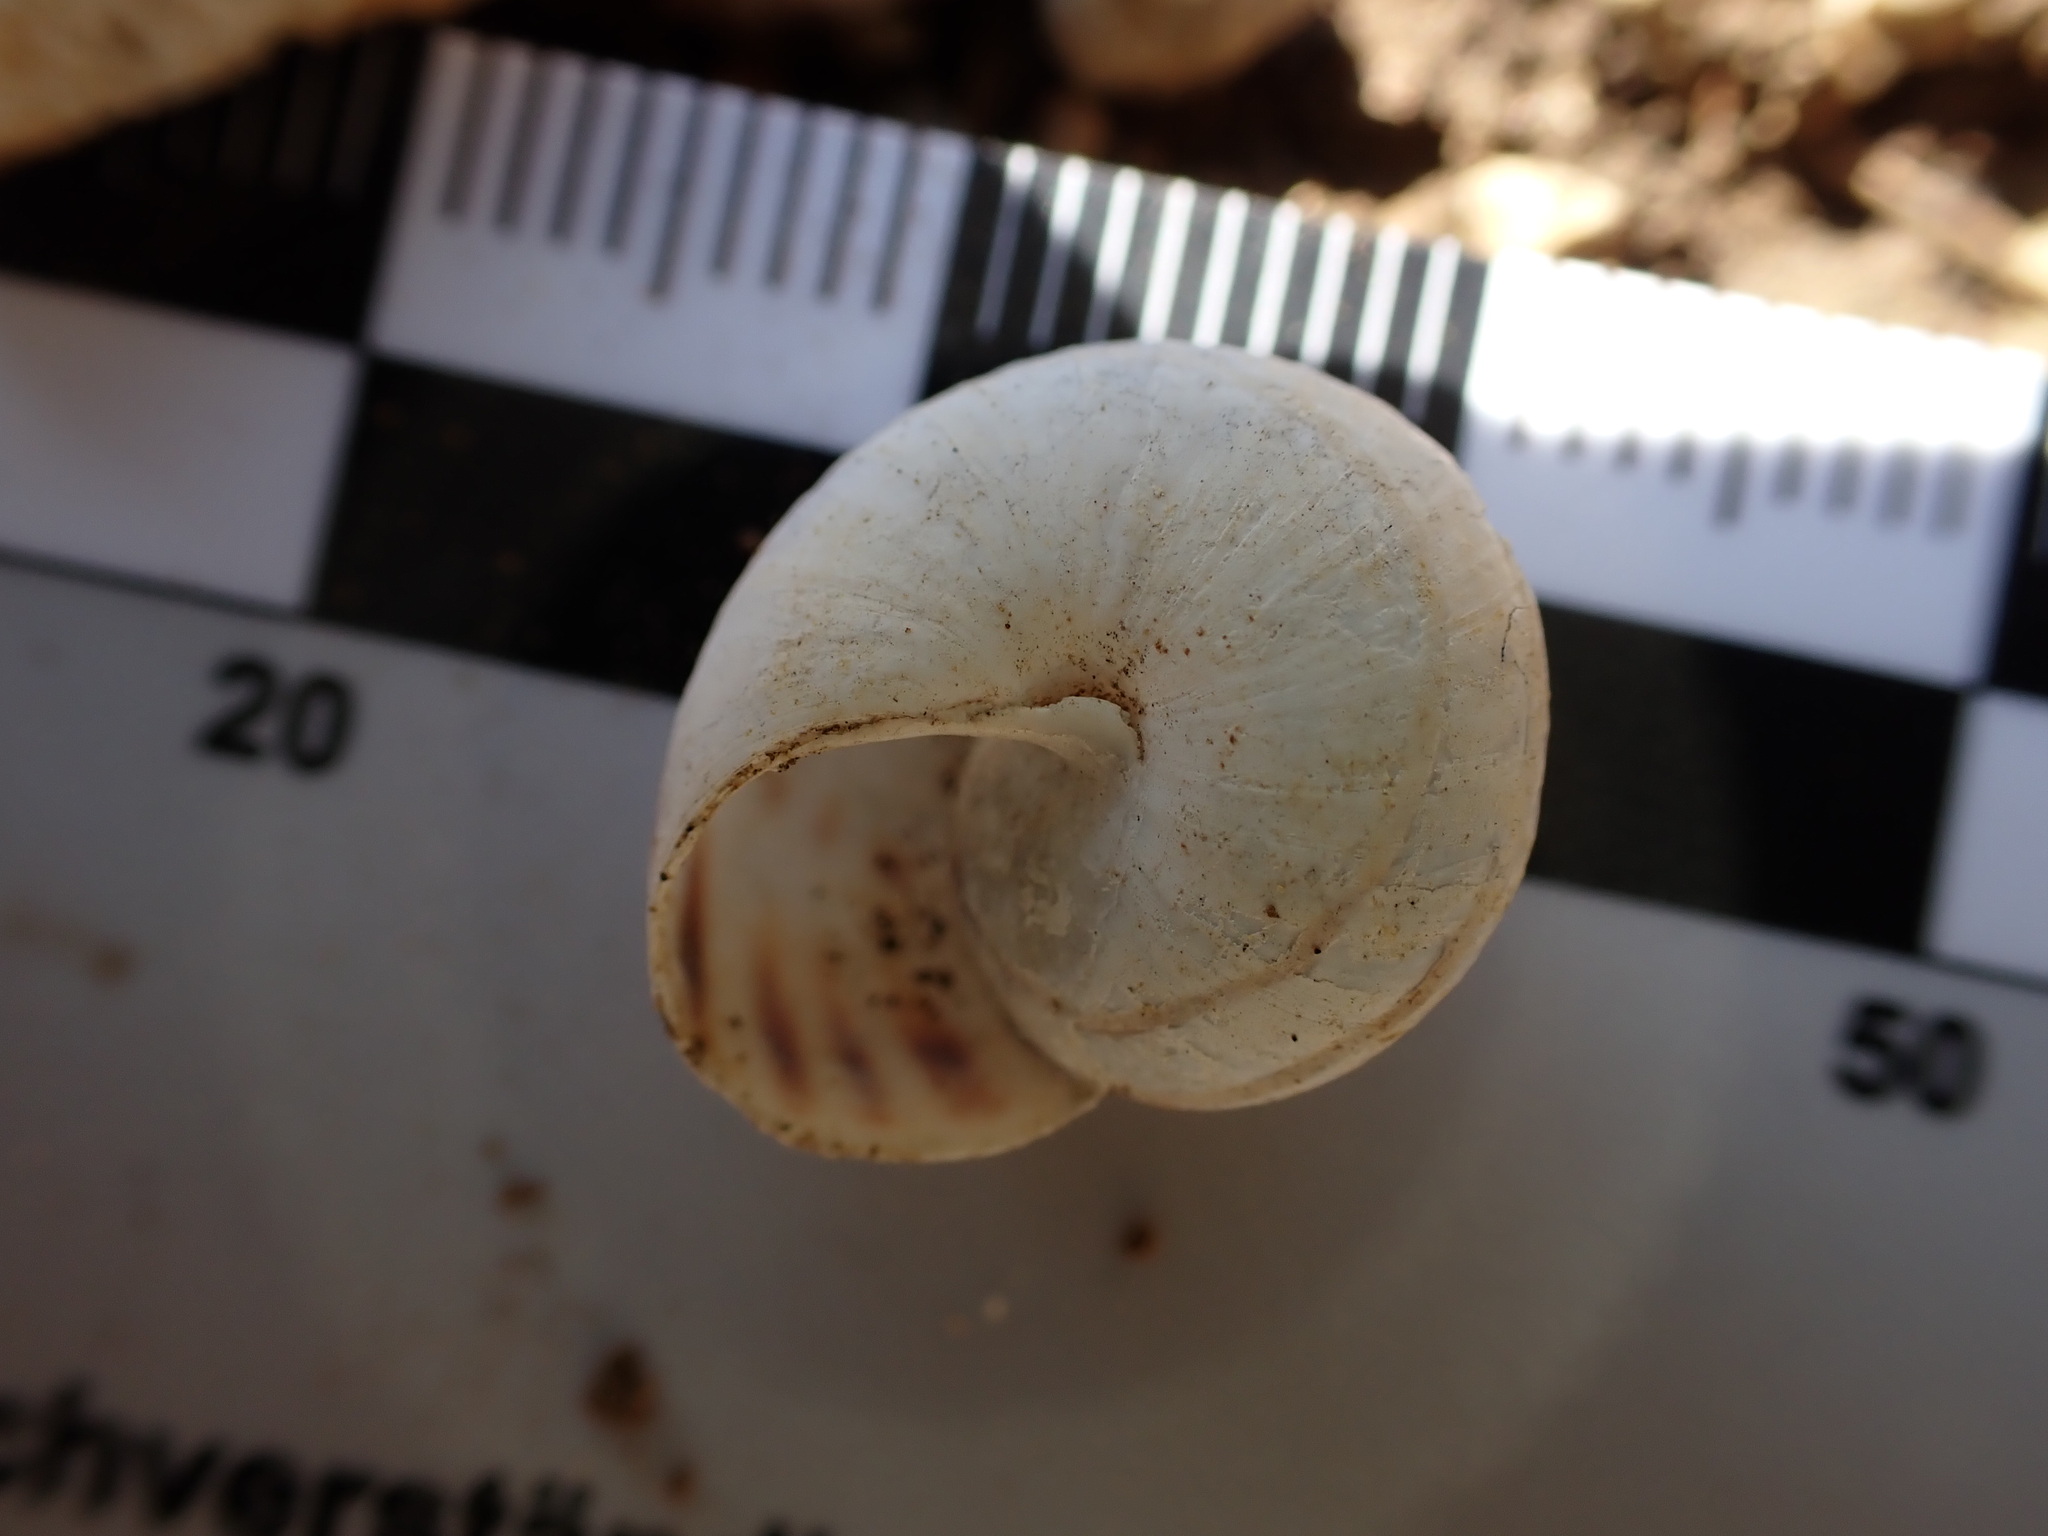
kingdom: Animalia
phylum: Mollusca
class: Gastropoda
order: Stylommatophora
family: Helicidae
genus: Pseudotachea
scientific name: Pseudotachea splendida
